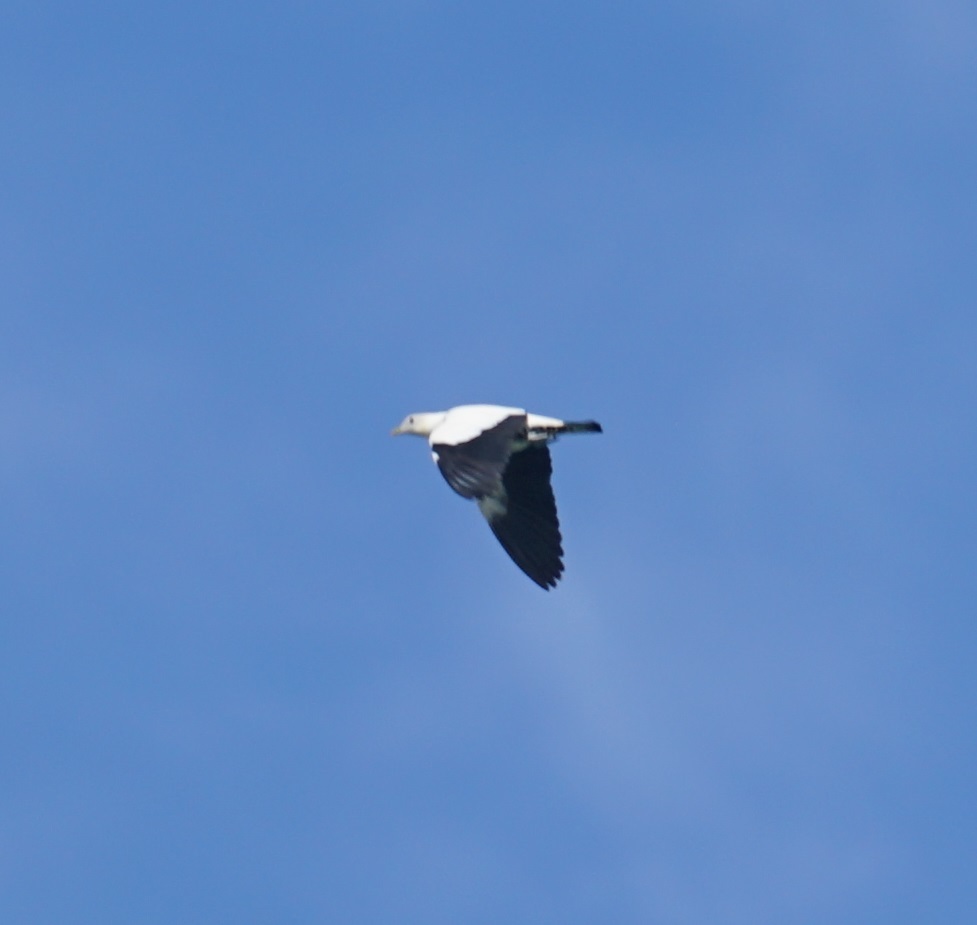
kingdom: Animalia
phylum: Chordata
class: Aves
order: Columbiformes
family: Columbidae
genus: Ducula
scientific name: Ducula spilorrhoa
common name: Torresian imperial pigeon
